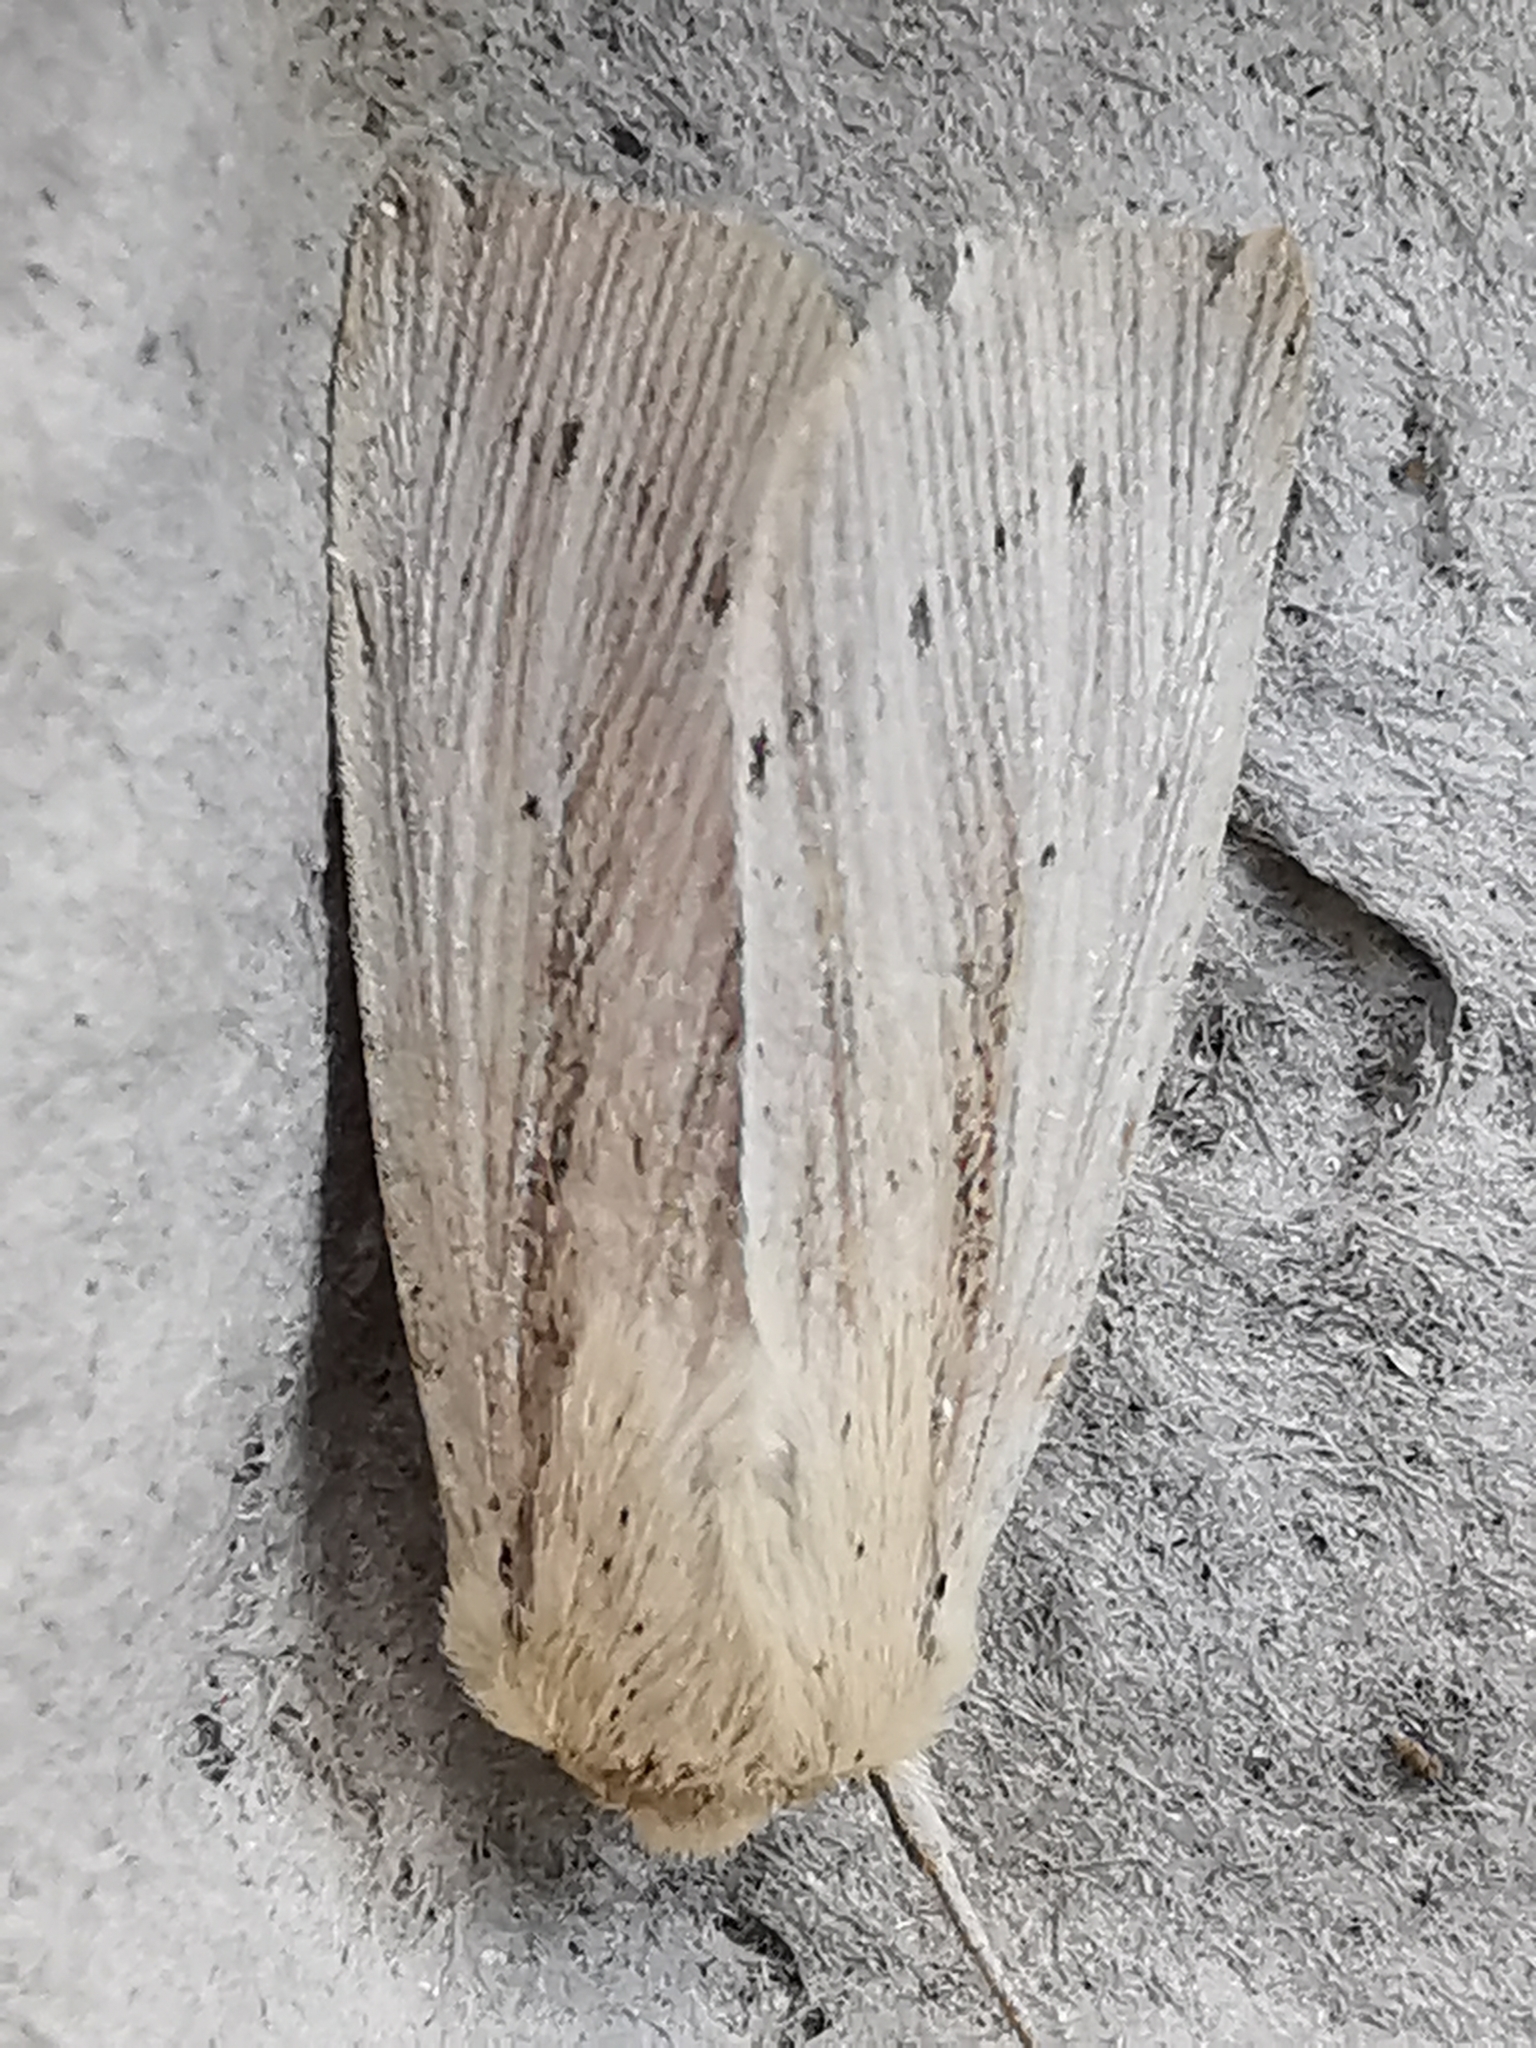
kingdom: Animalia
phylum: Arthropoda
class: Insecta
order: Lepidoptera
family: Noctuidae
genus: Mythimna
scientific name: Mythimna straminea
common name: Southern wainscot
